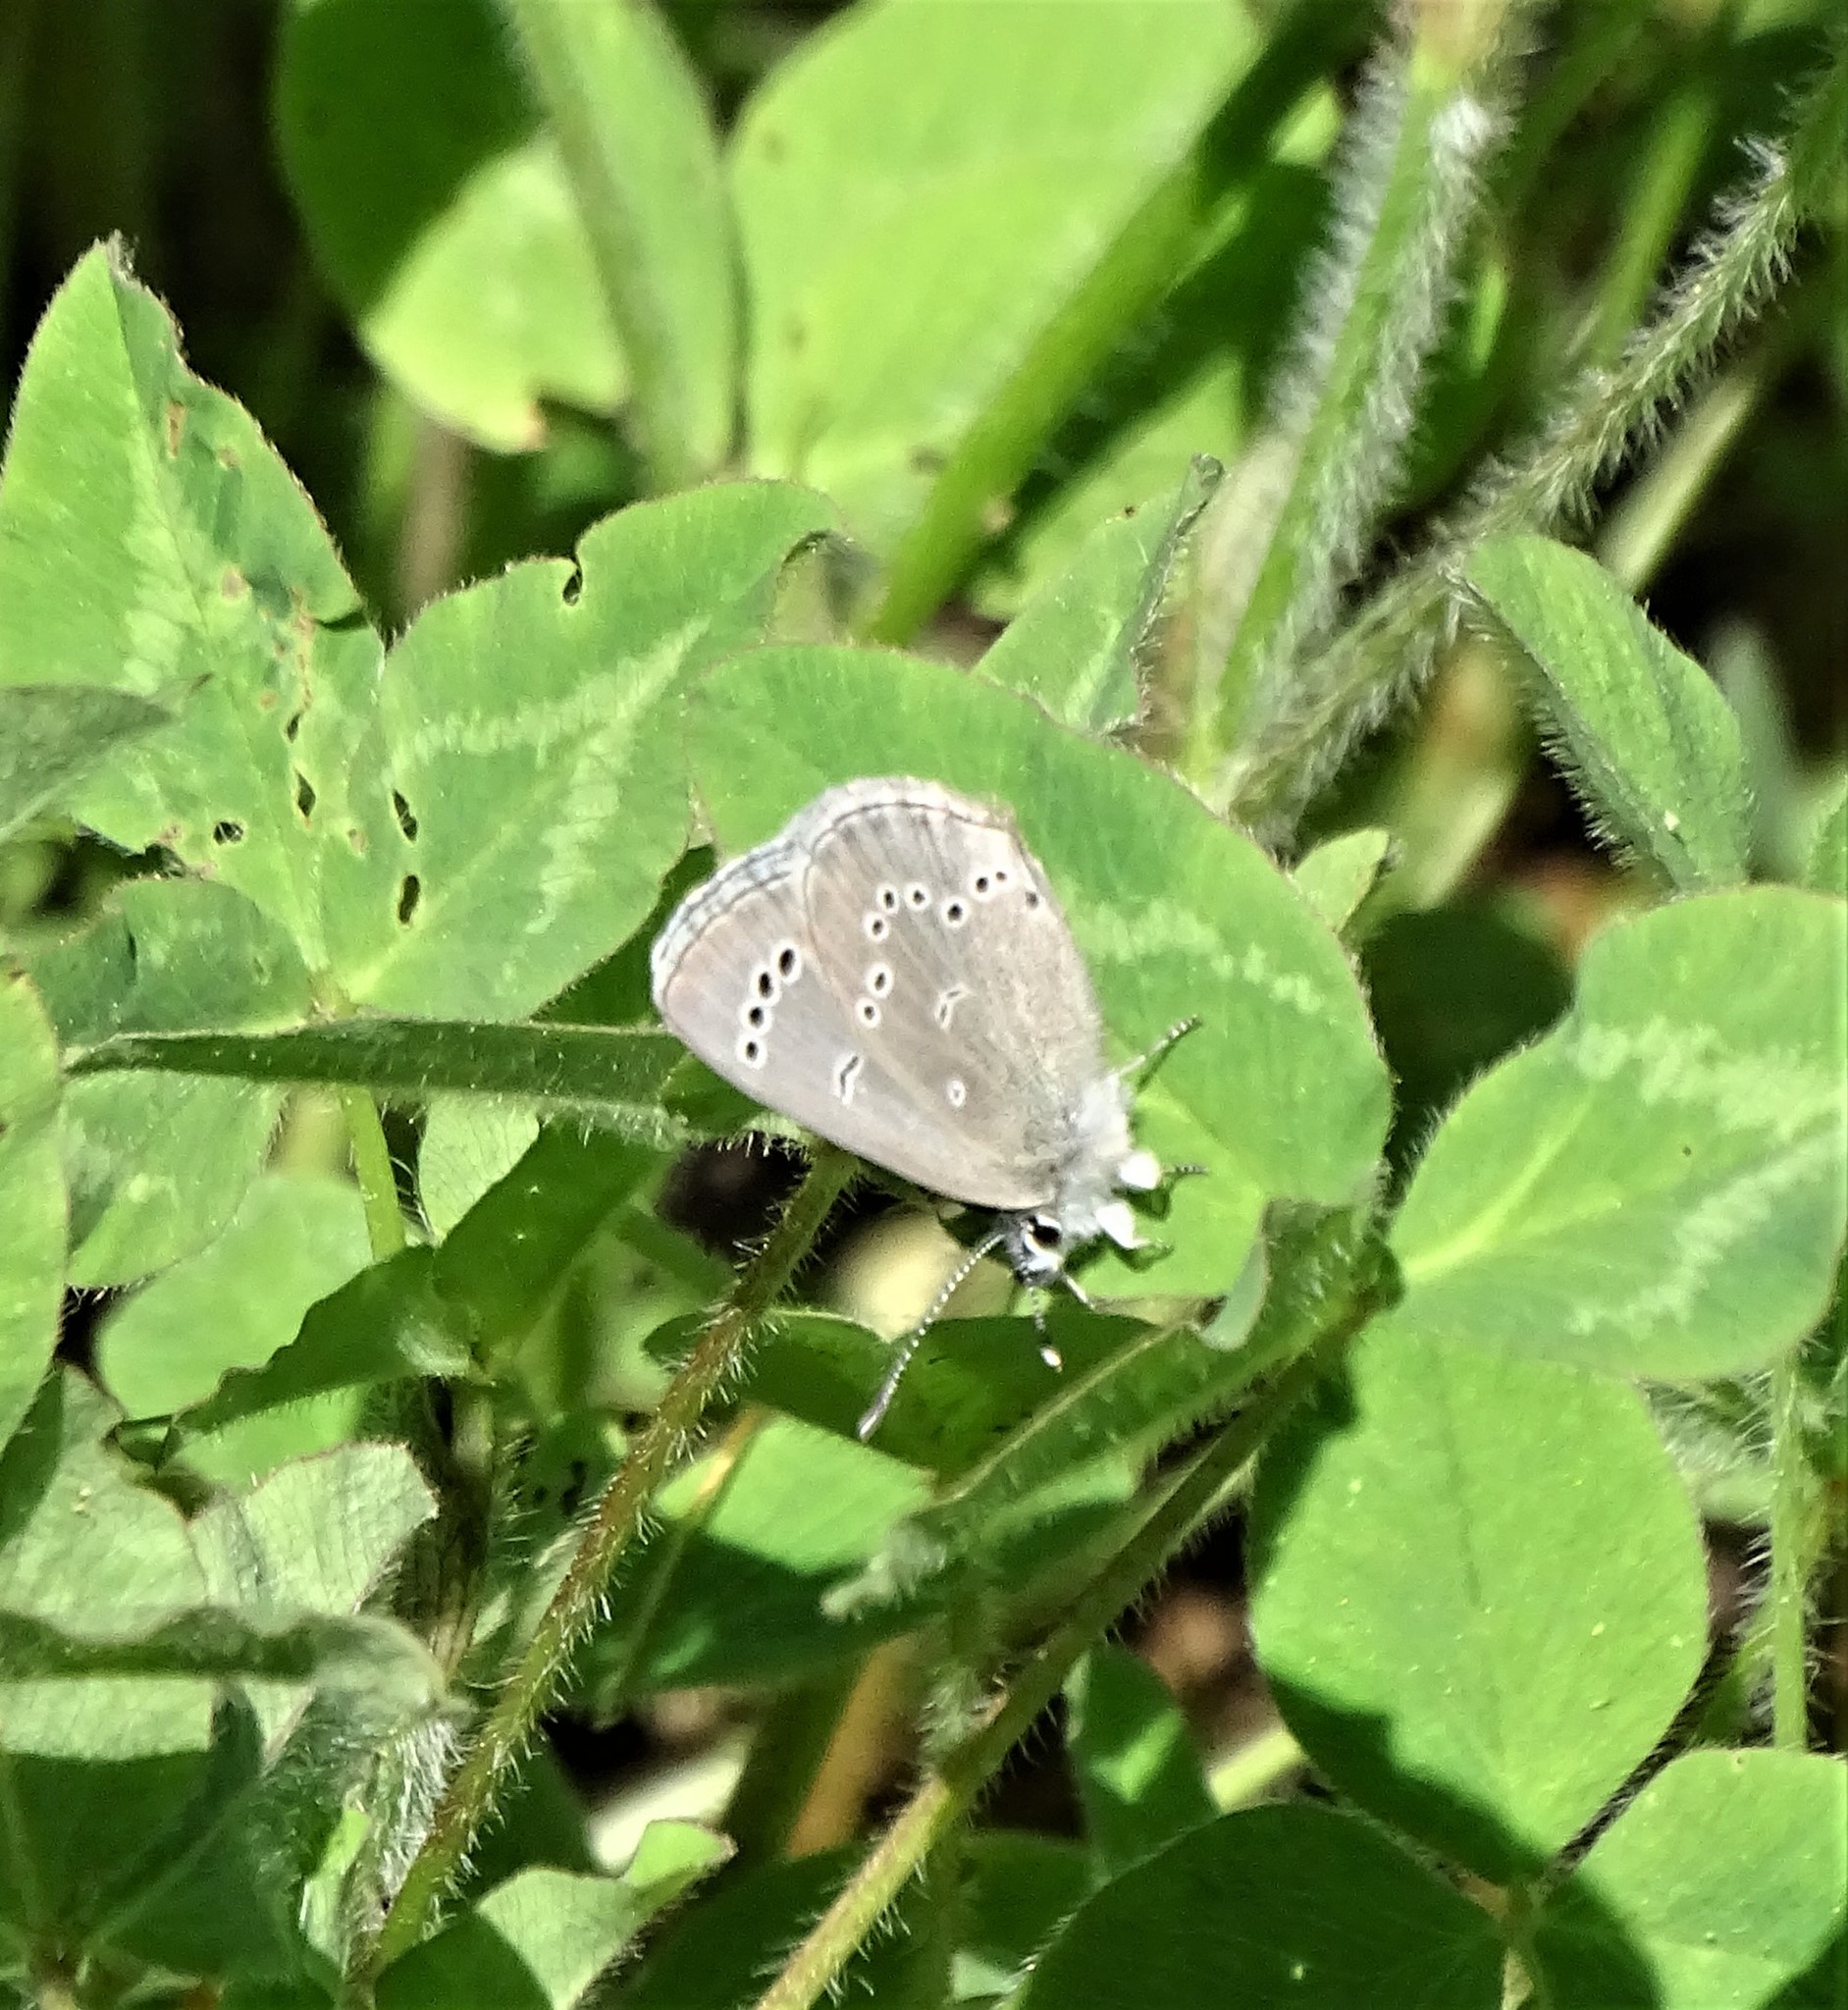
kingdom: Animalia
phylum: Arthropoda
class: Insecta
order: Lepidoptera
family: Lycaenidae
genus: Glaucopsyche
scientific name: Glaucopsyche lygdamus
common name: Silvery blue
